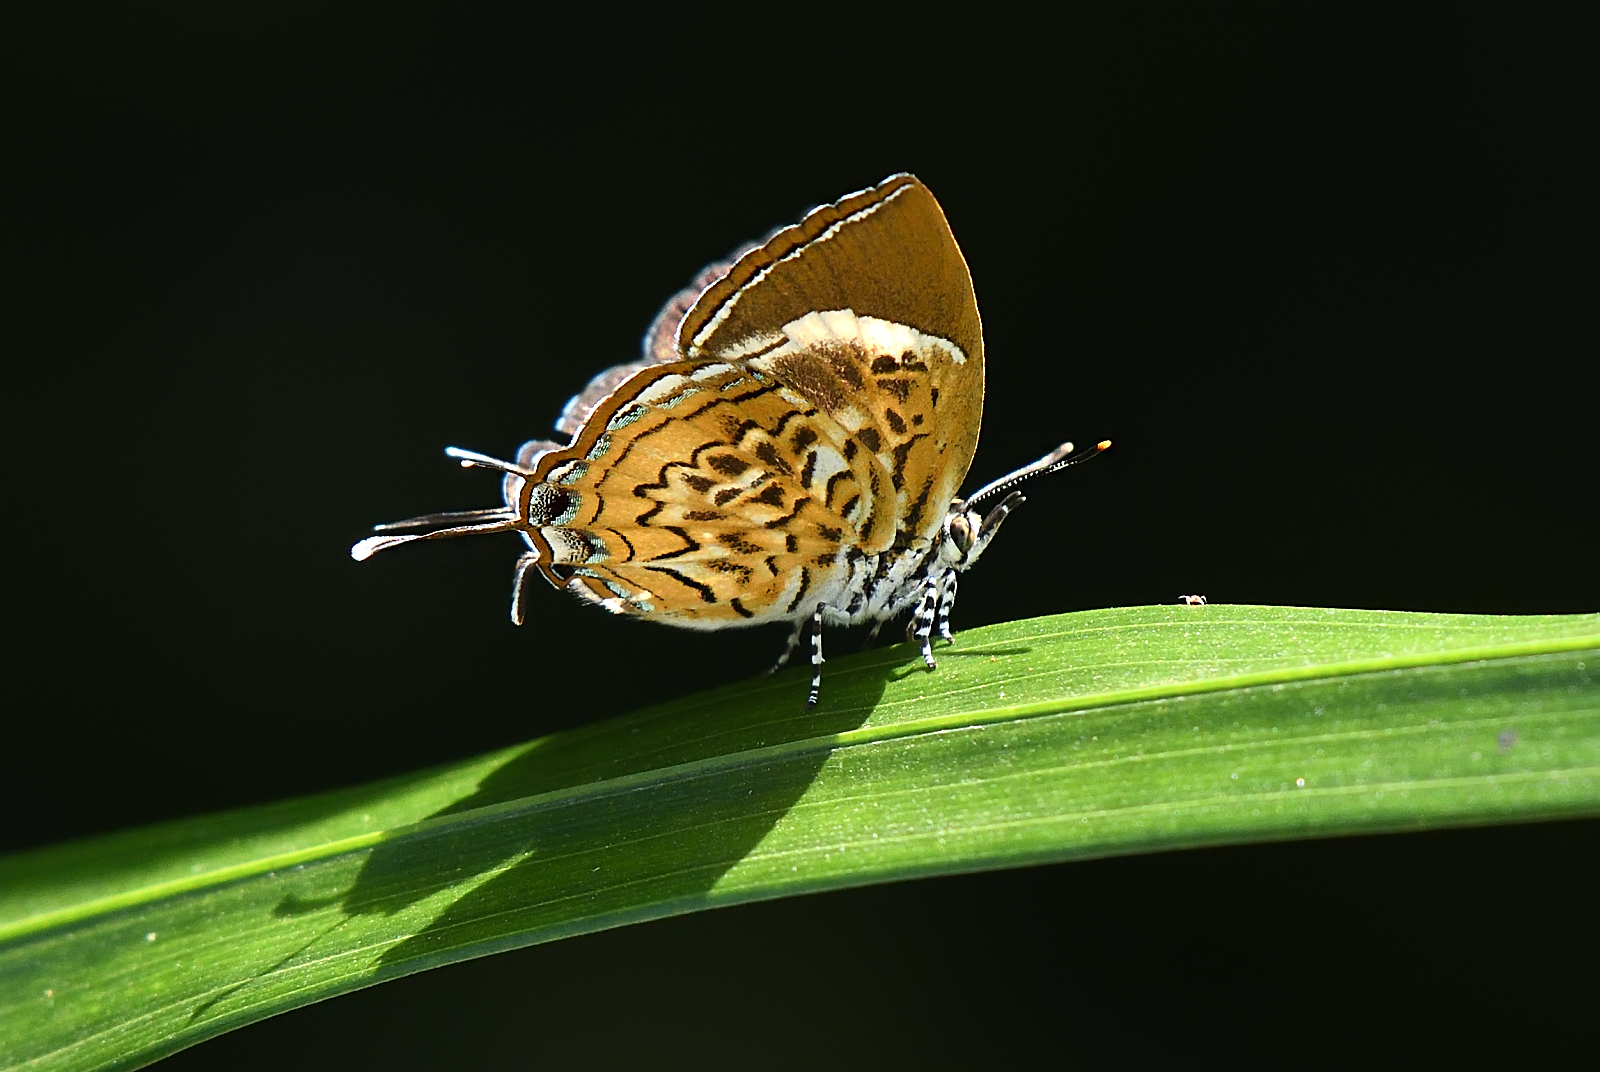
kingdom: Animalia
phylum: Arthropoda
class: Insecta
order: Lepidoptera
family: Lycaenidae
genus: Rathinda
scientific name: Rathinda amor
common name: Monkey puzzle
